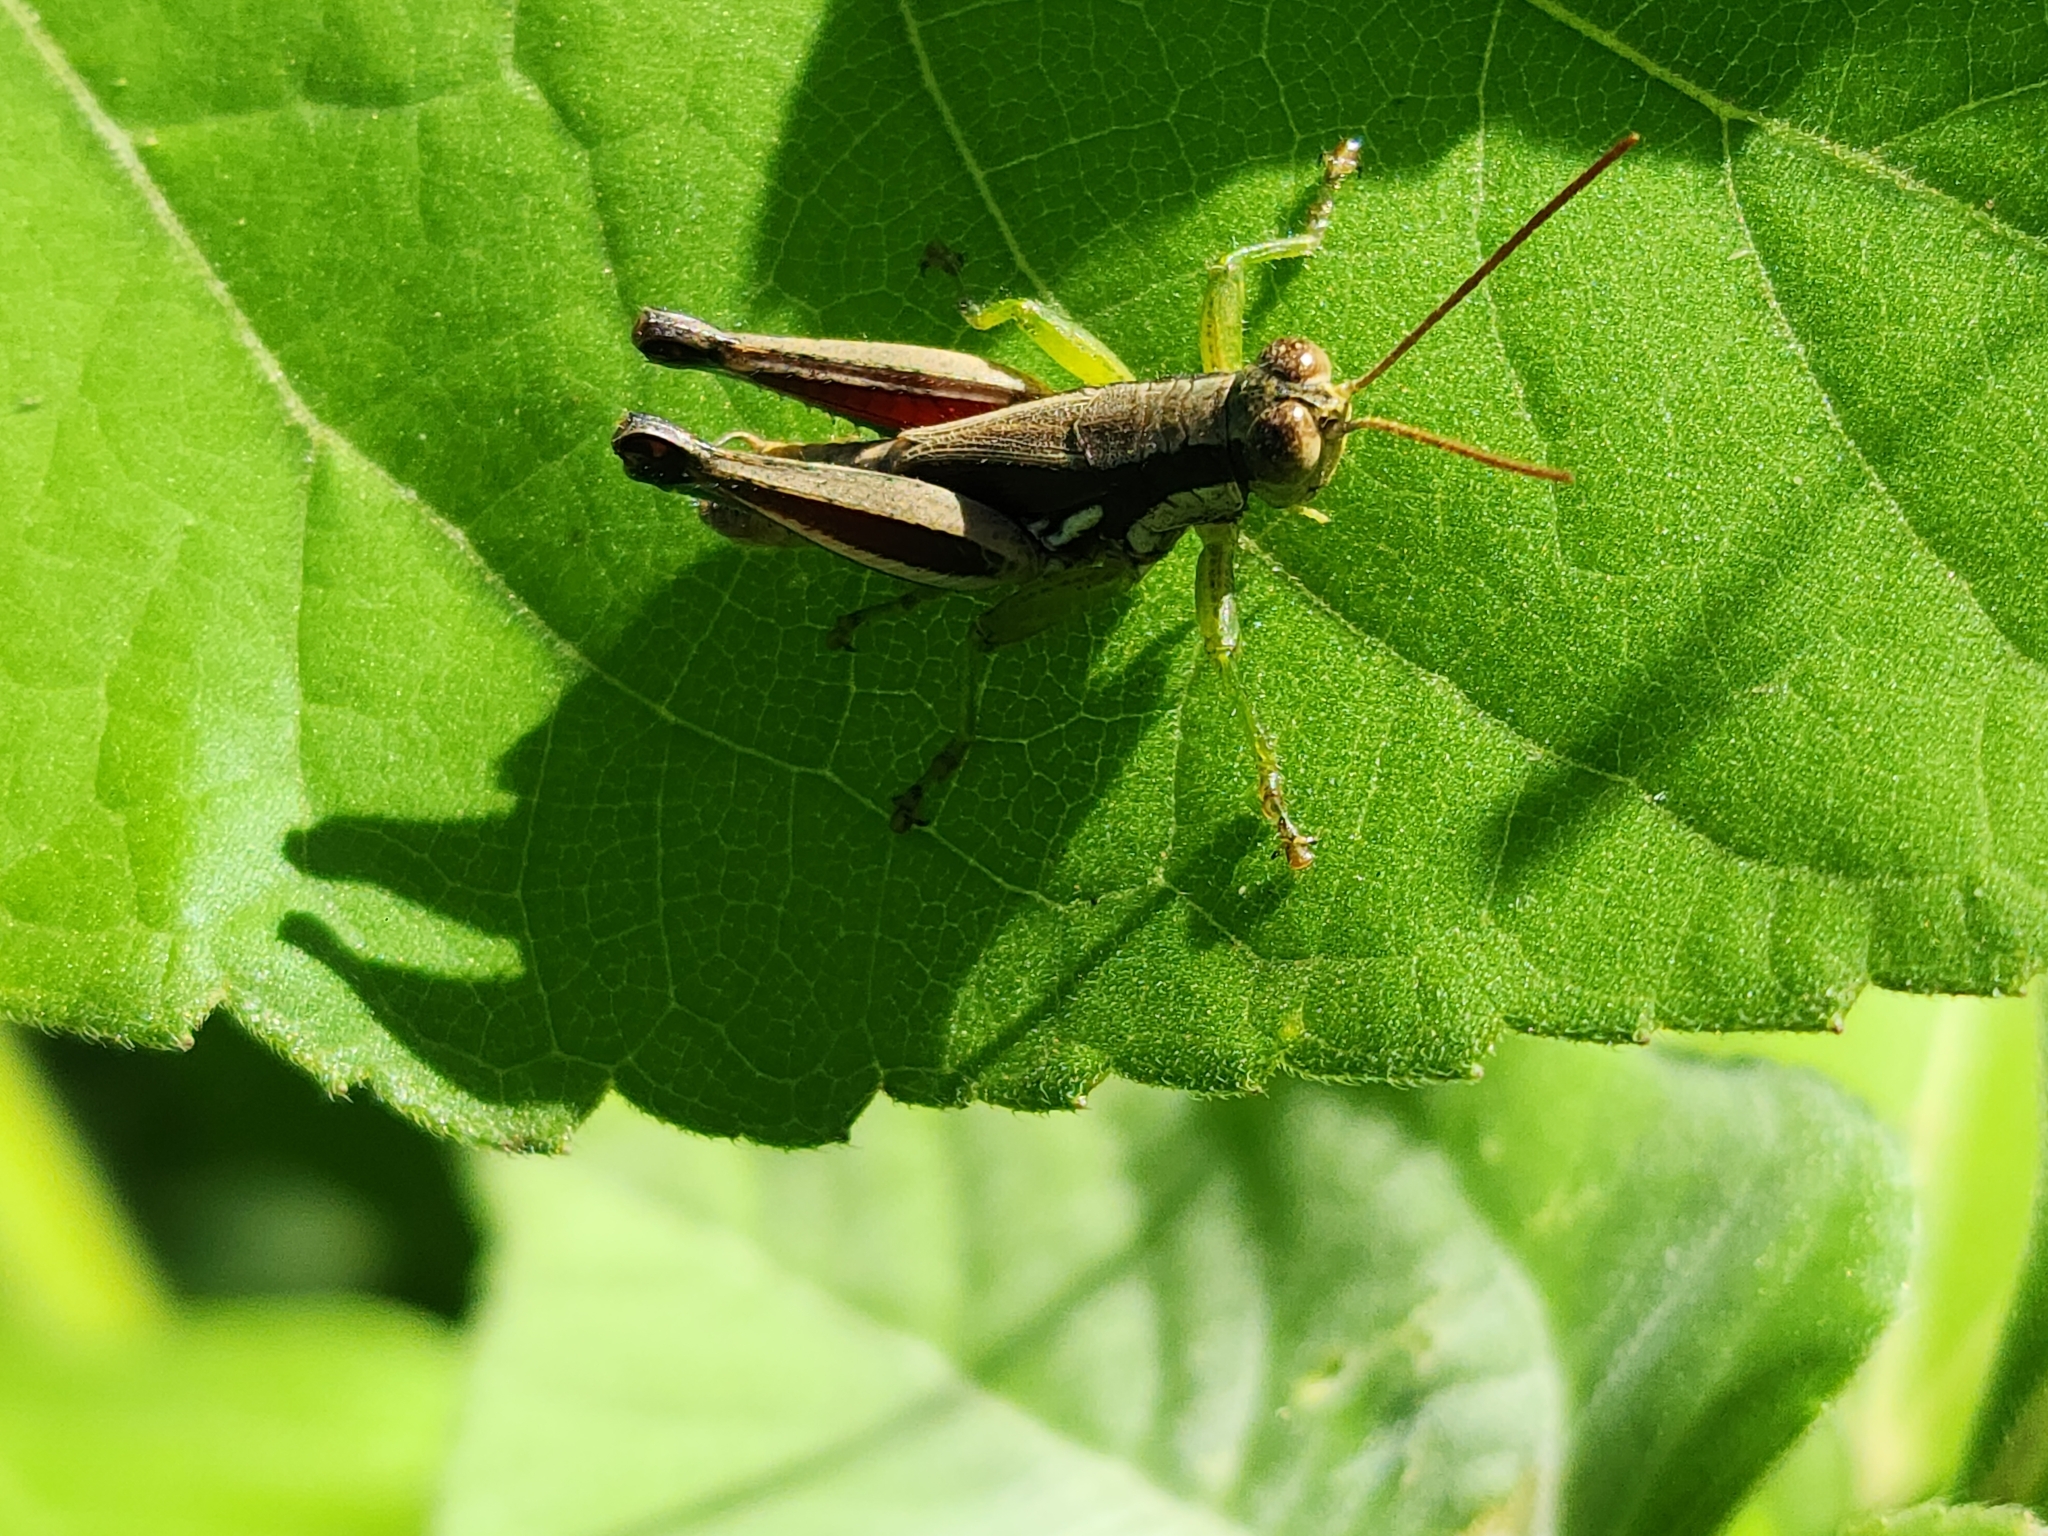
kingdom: Animalia
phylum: Arthropoda
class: Insecta
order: Orthoptera
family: Acrididae
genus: Dichroplus
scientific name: Dichroplus schulzi
